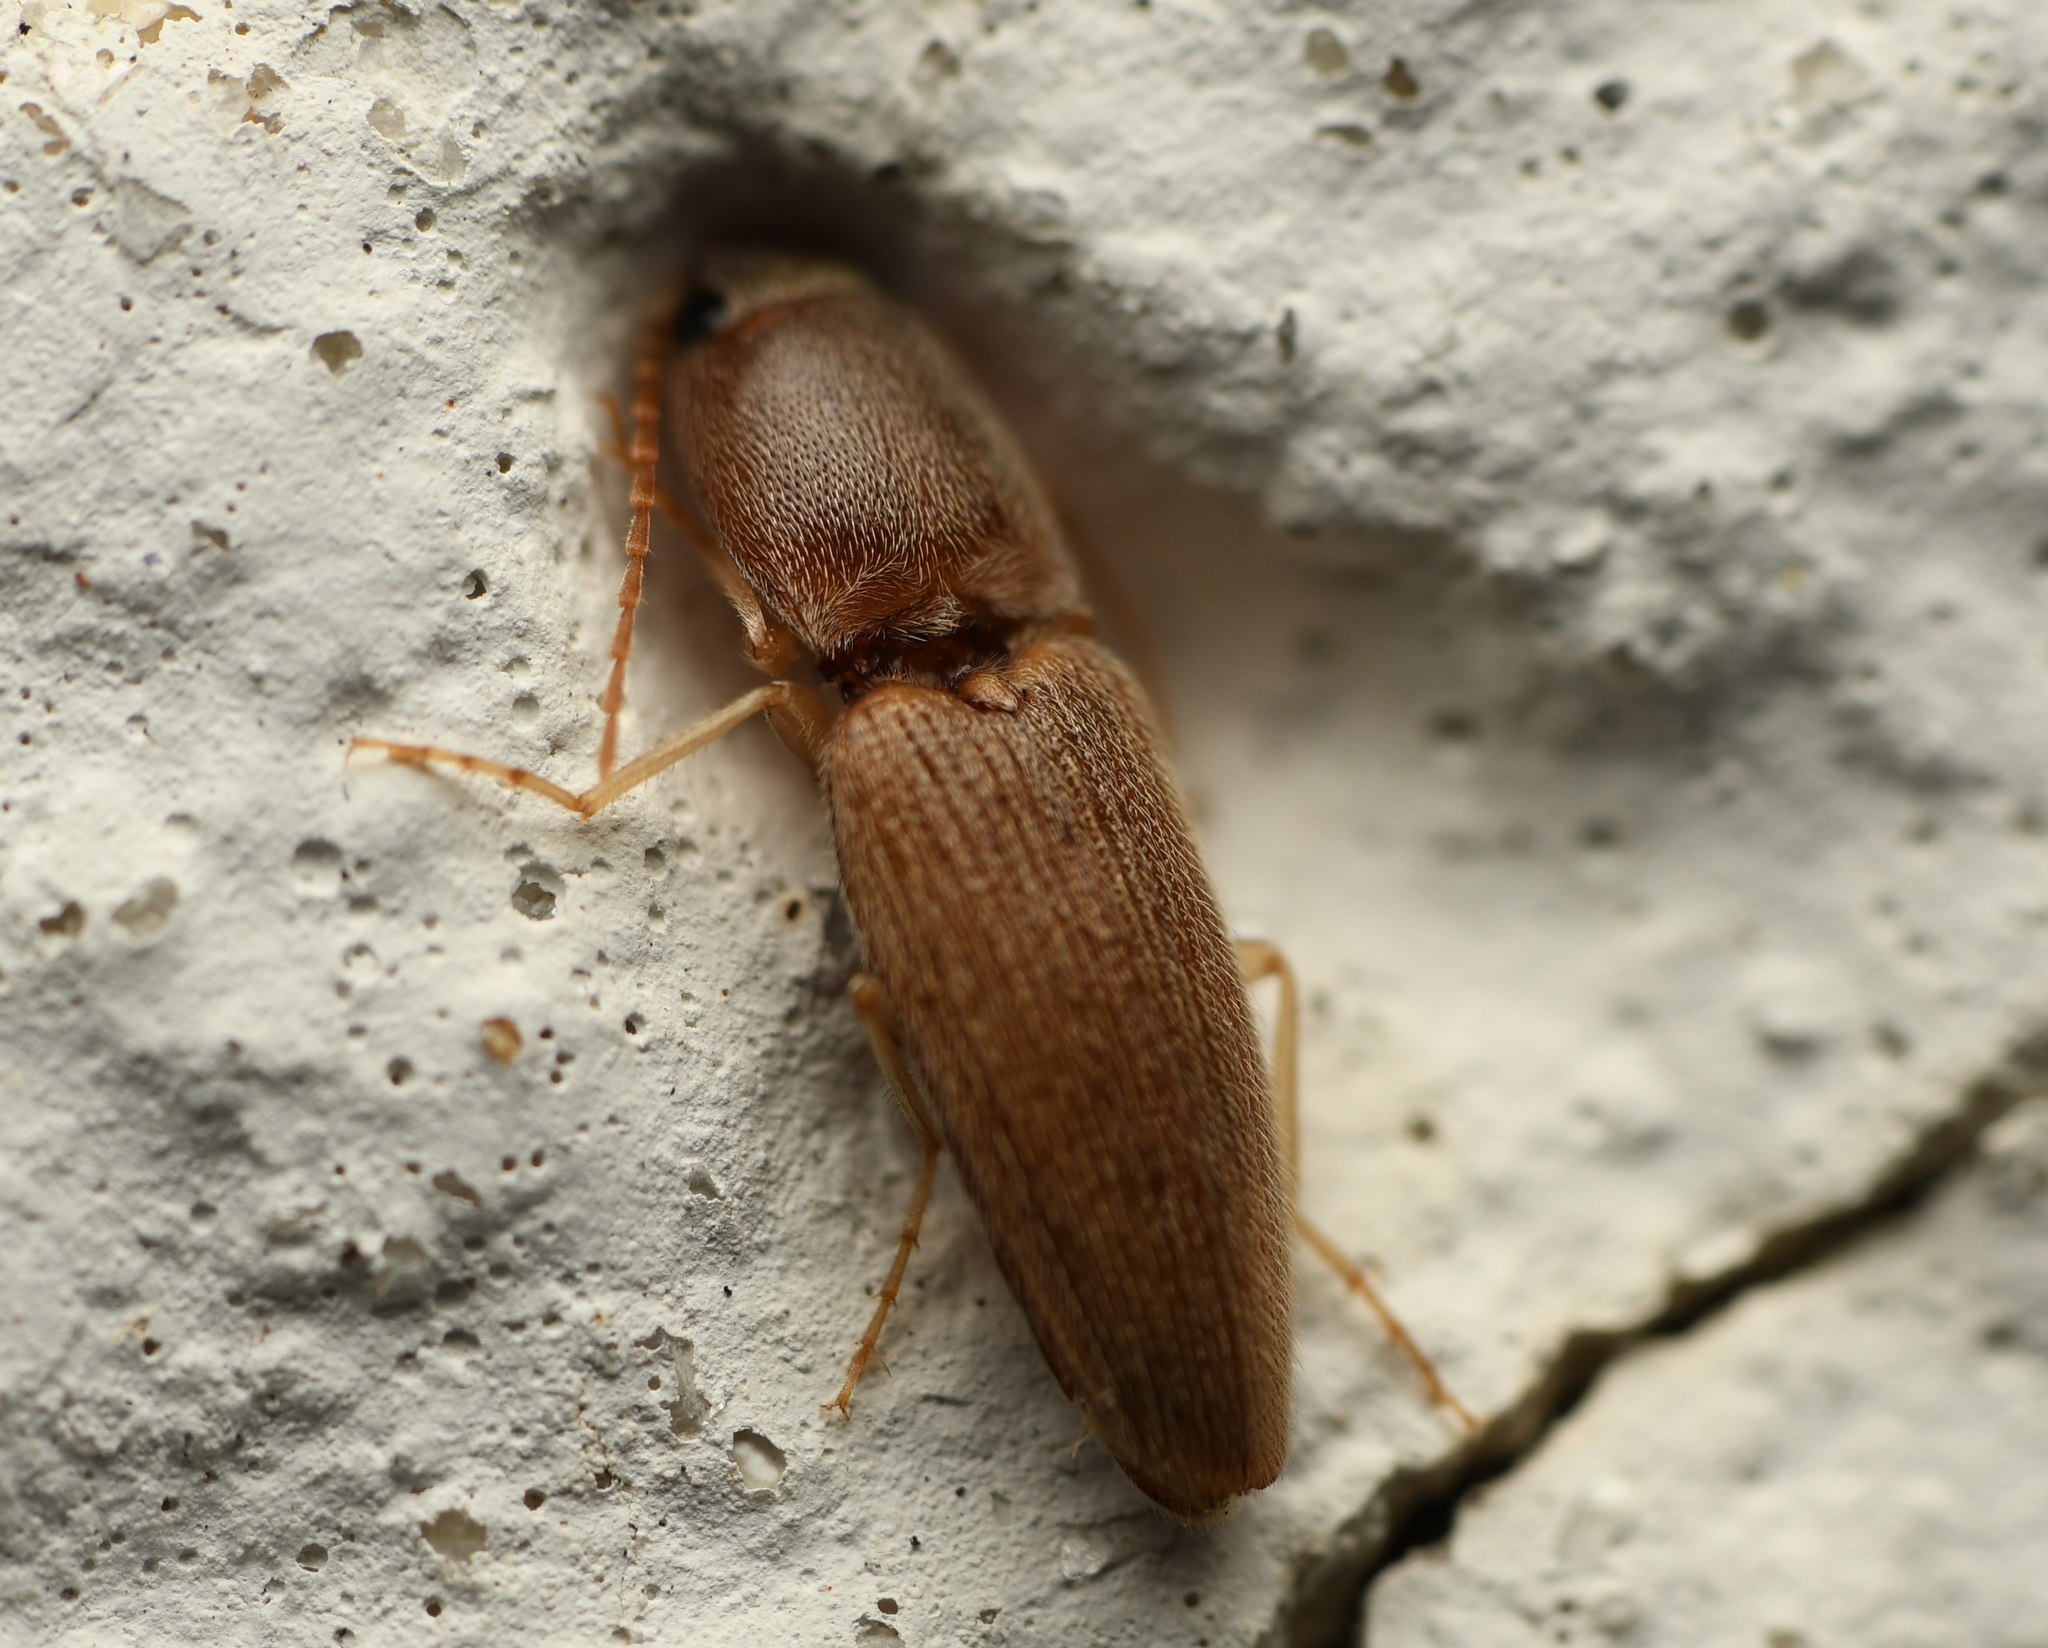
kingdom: Animalia
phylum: Arthropoda
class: Insecta
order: Coleoptera
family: Elateridae
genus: Monocrepidius
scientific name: Monocrepidius scissus
